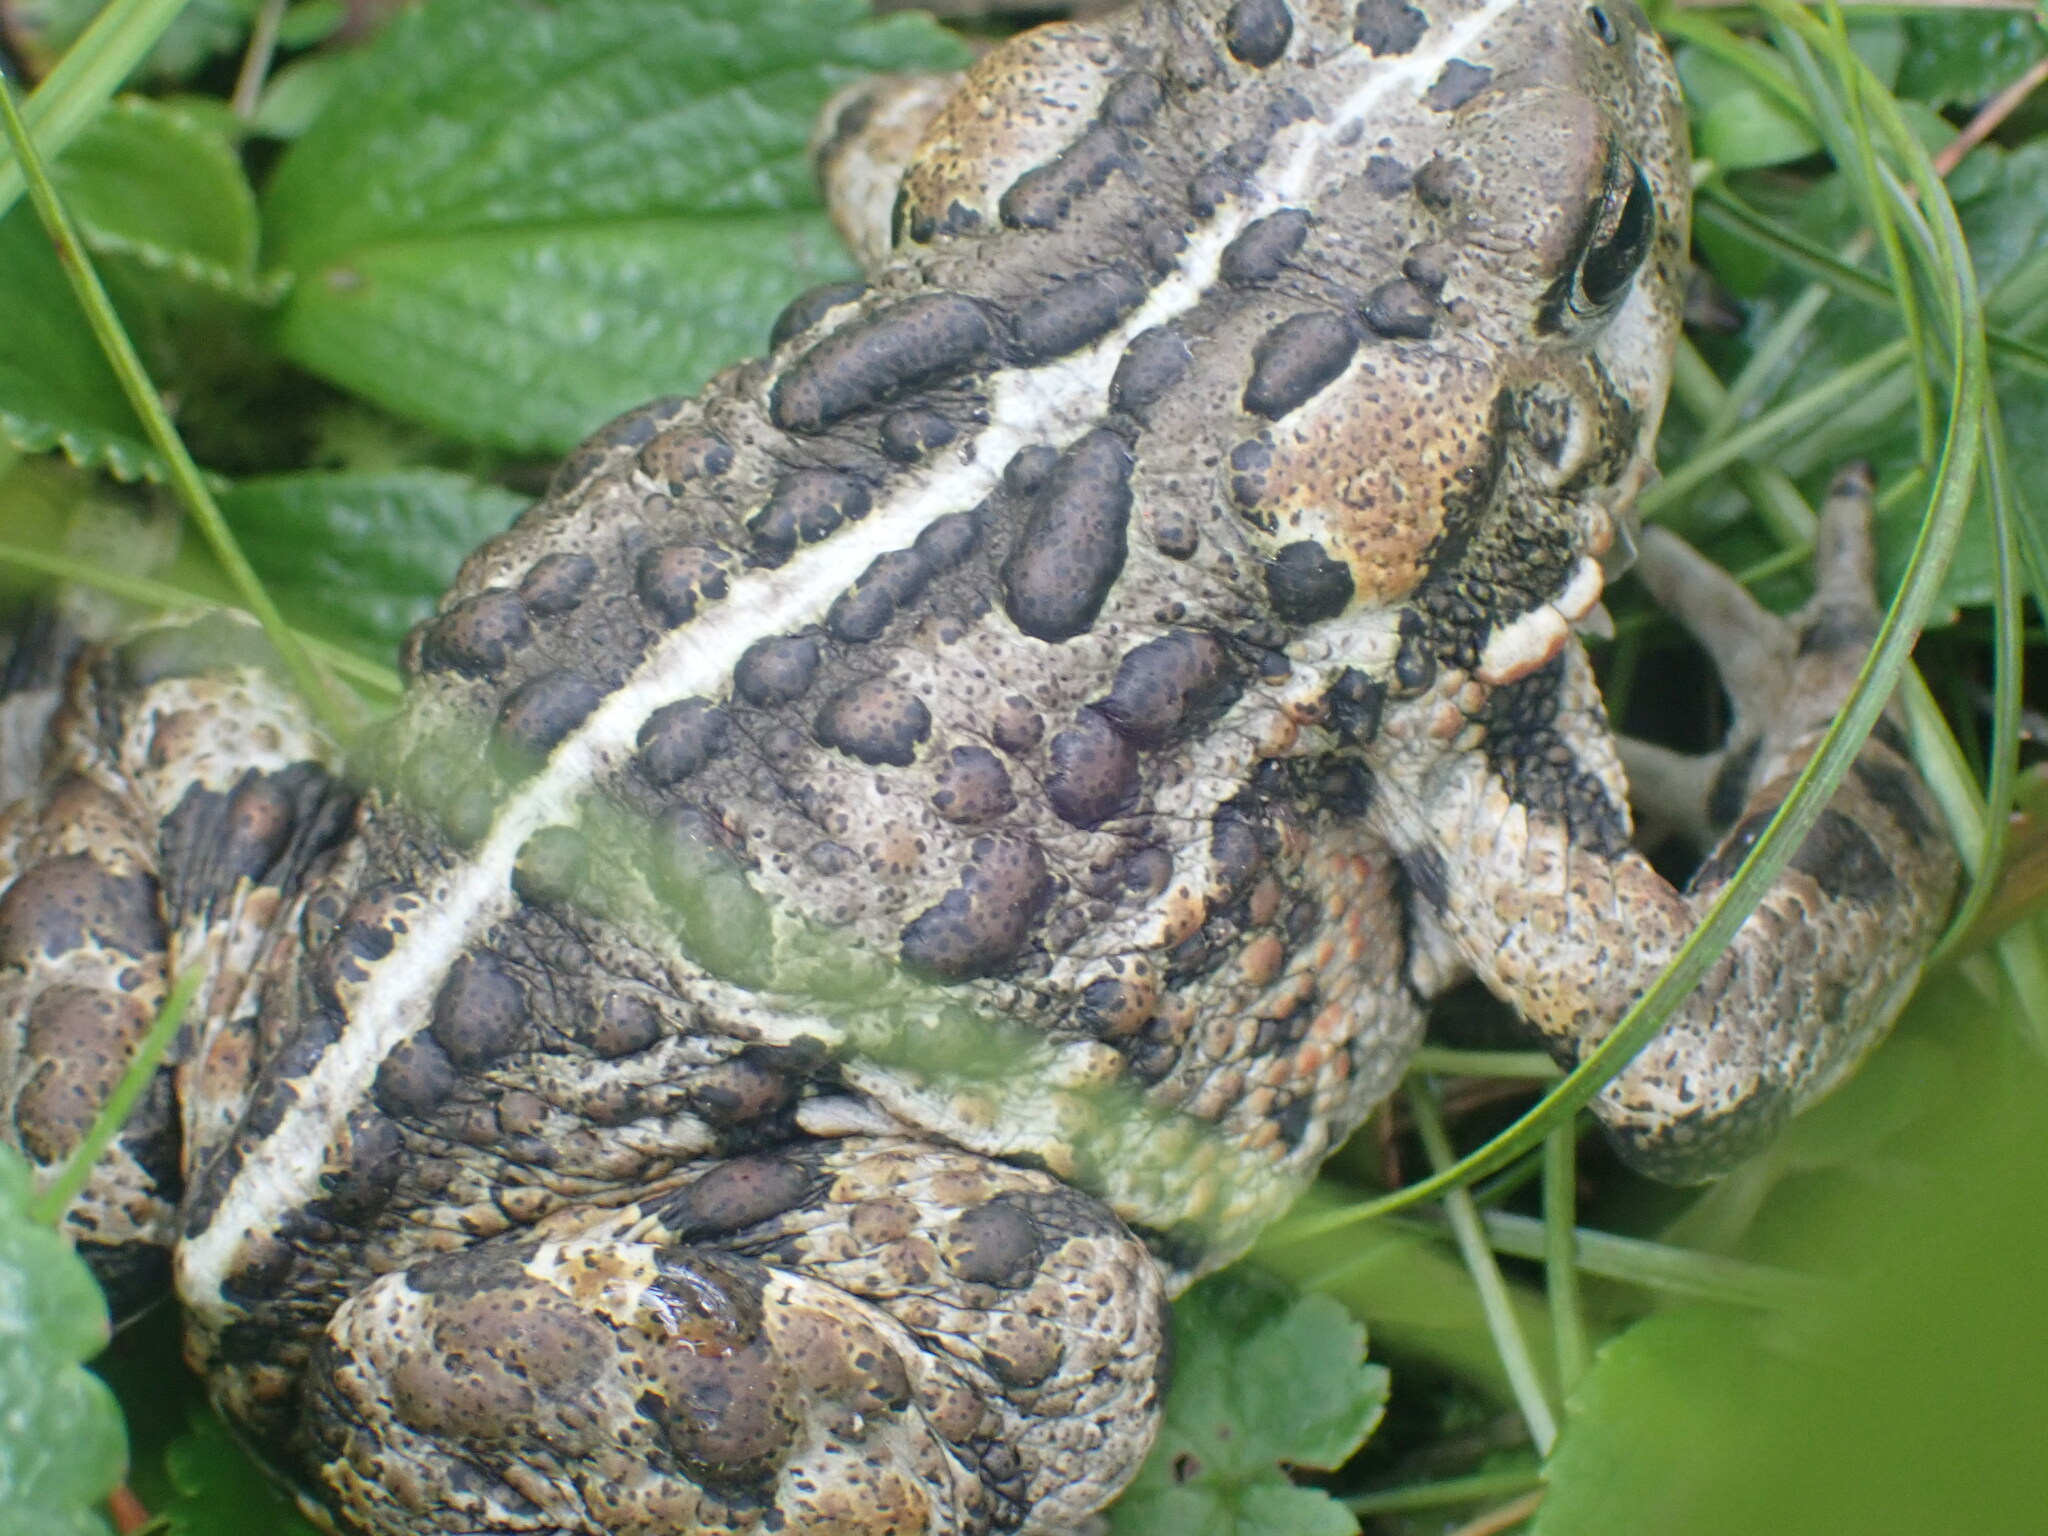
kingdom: Animalia
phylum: Chordata
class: Amphibia
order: Anura
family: Bufonidae
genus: Anaxyrus
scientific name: Anaxyrus boreas
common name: Western toad
